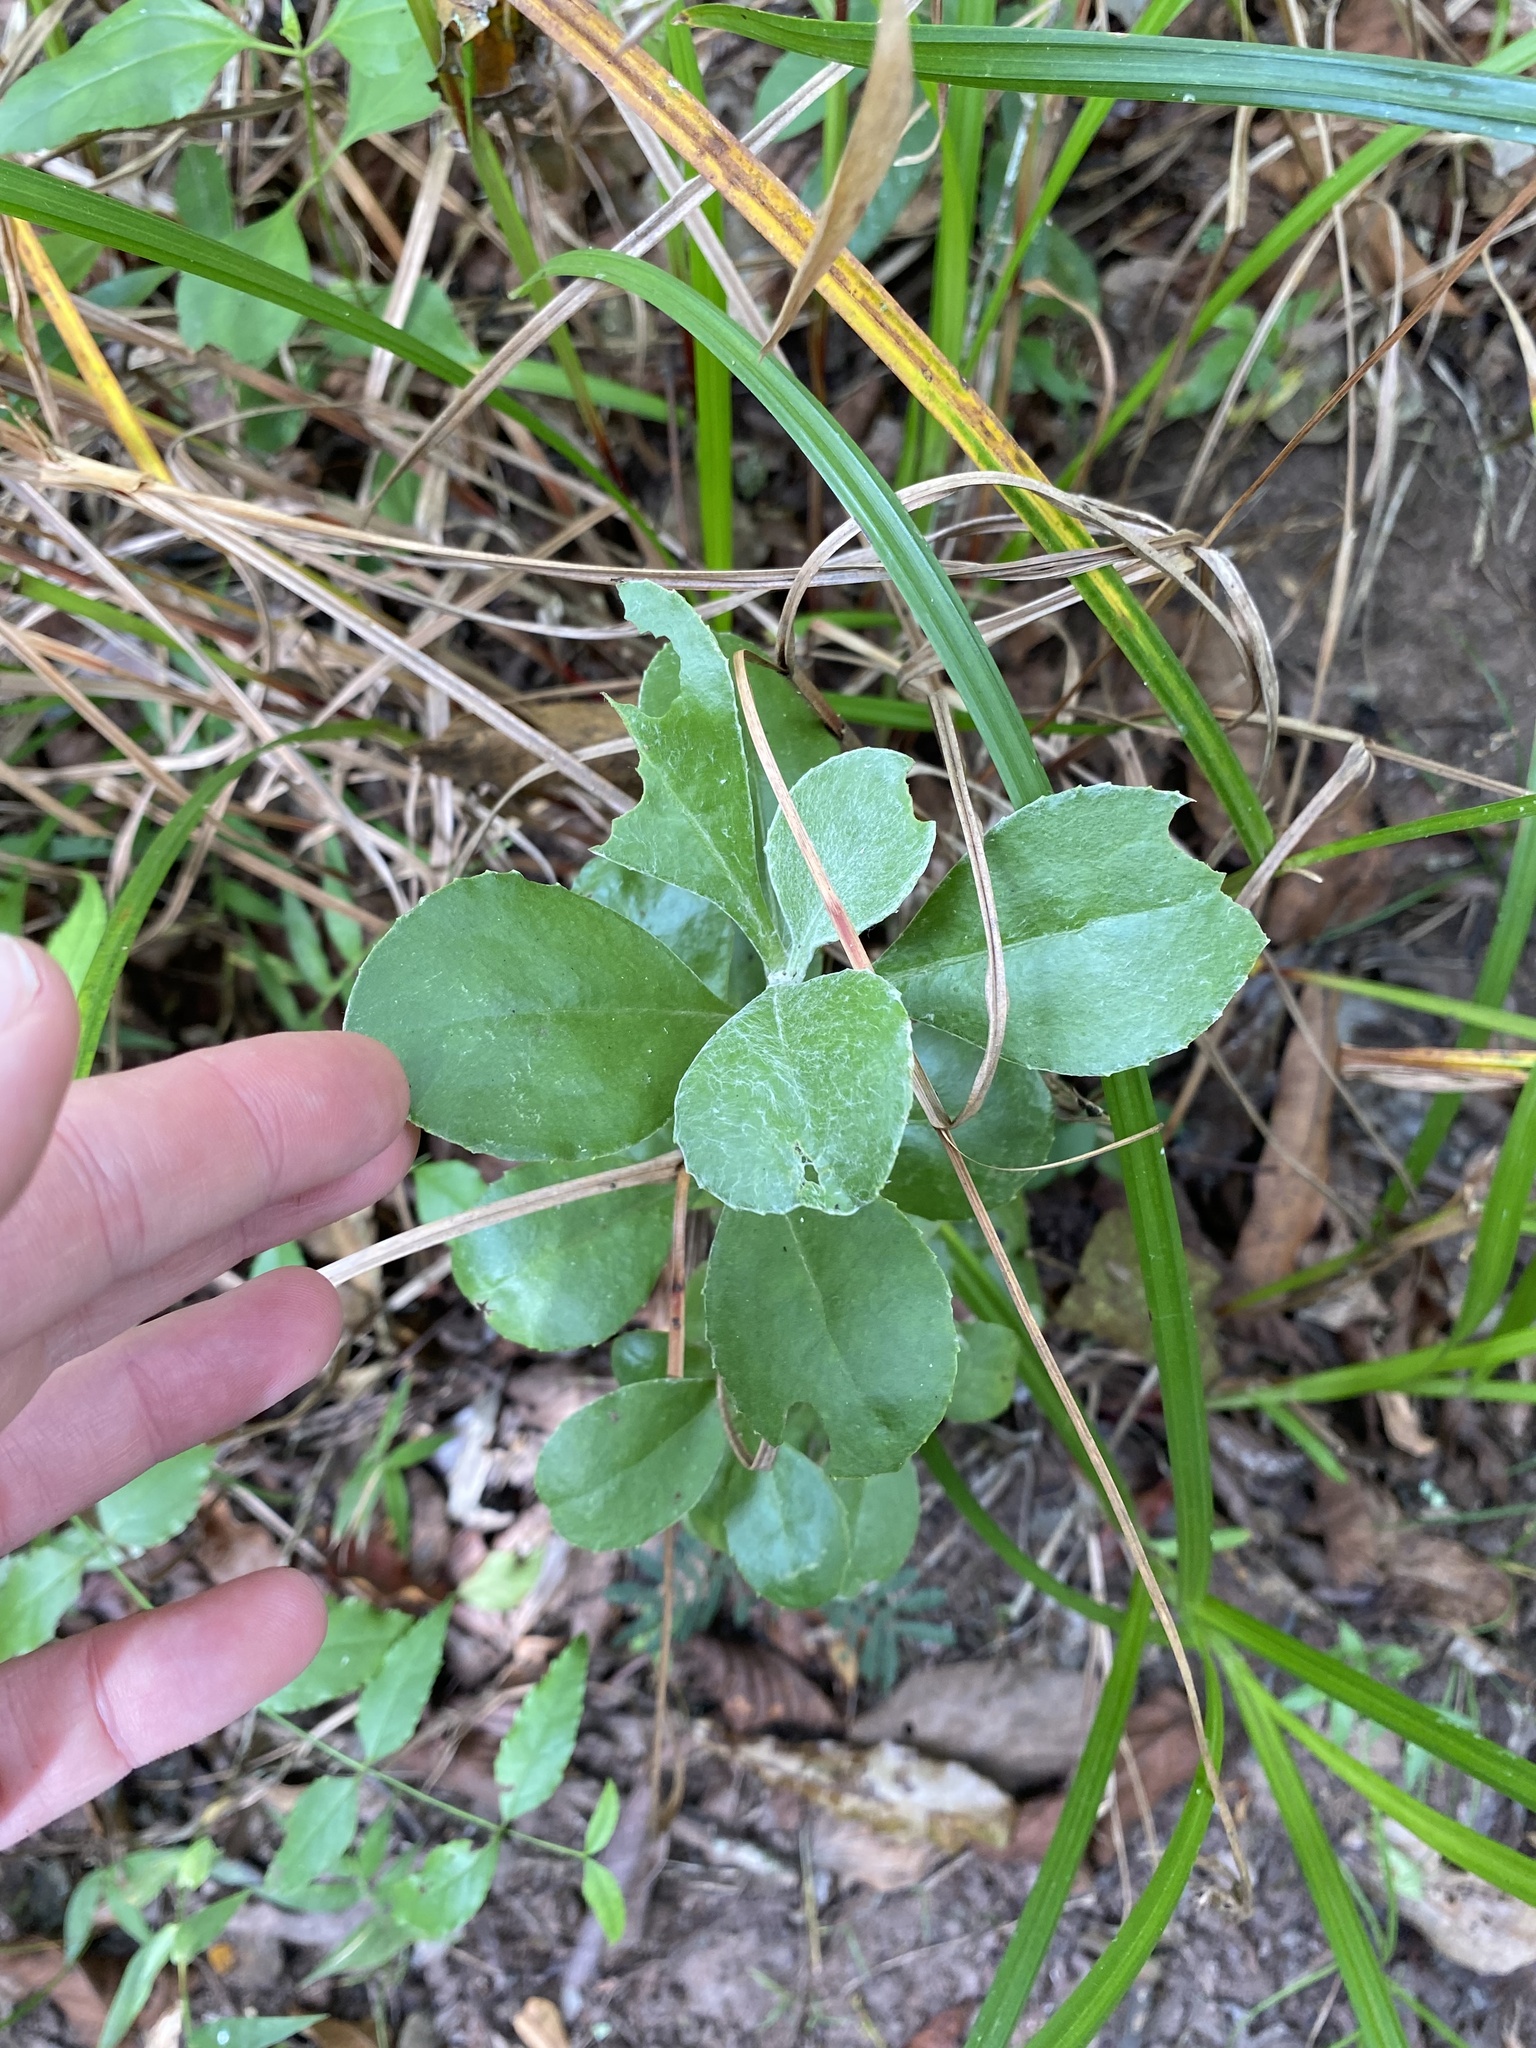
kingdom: Plantae
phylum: Tracheophyta
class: Magnoliopsida
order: Asterales
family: Asteraceae
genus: Osteospermum
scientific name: Osteospermum moniliferum
